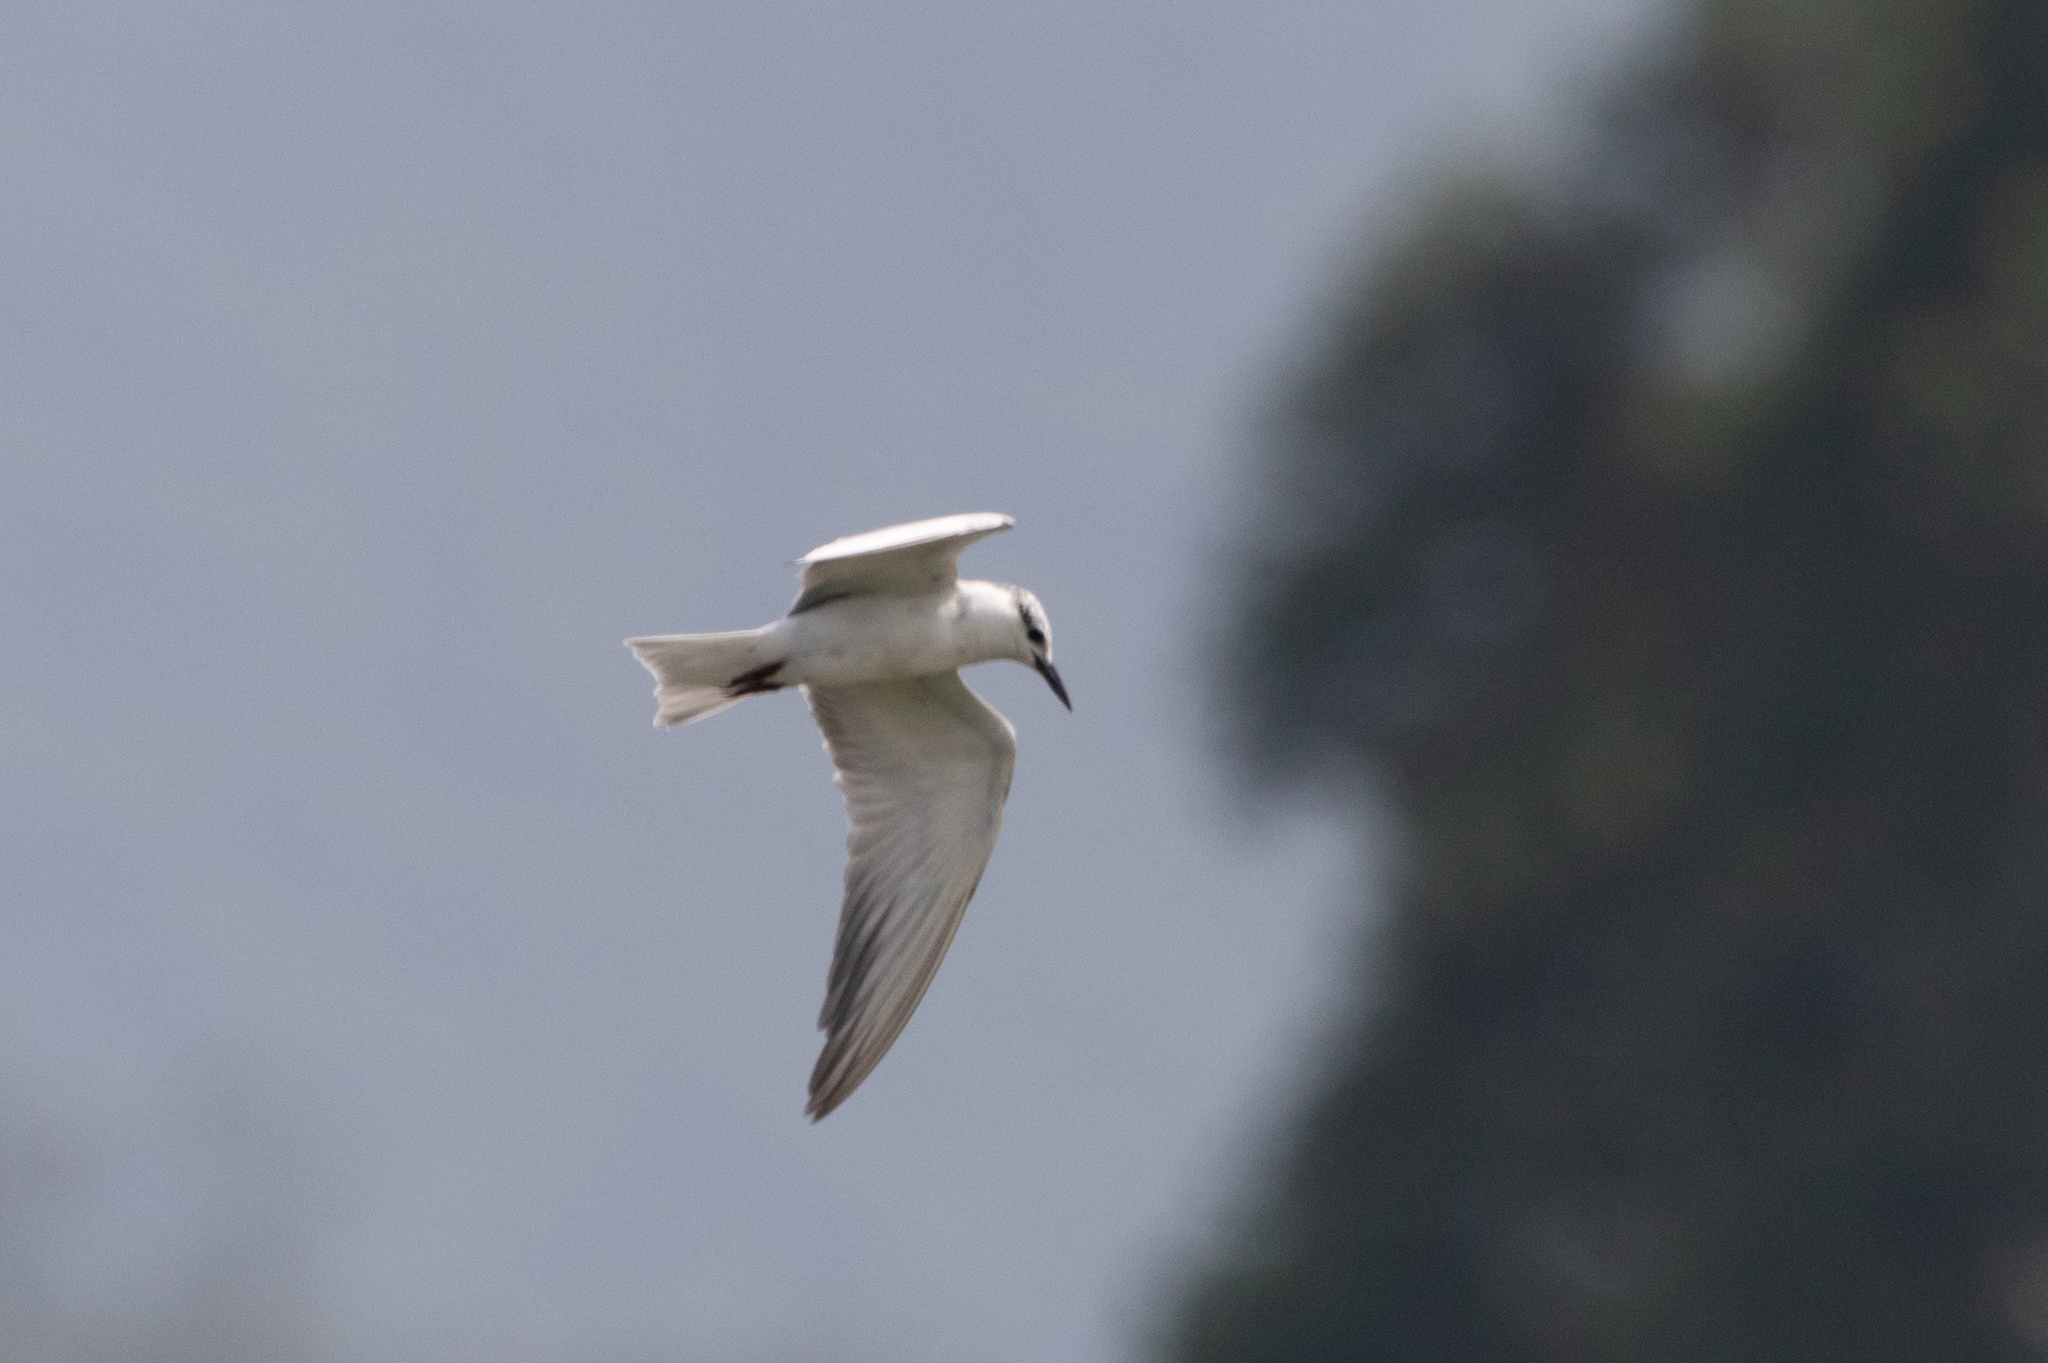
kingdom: Animalia
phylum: Chordata
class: Aves
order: Charadriiformes
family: Laridae
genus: Chlidonias
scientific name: Chlidonias hybrida
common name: Whiskered tern
